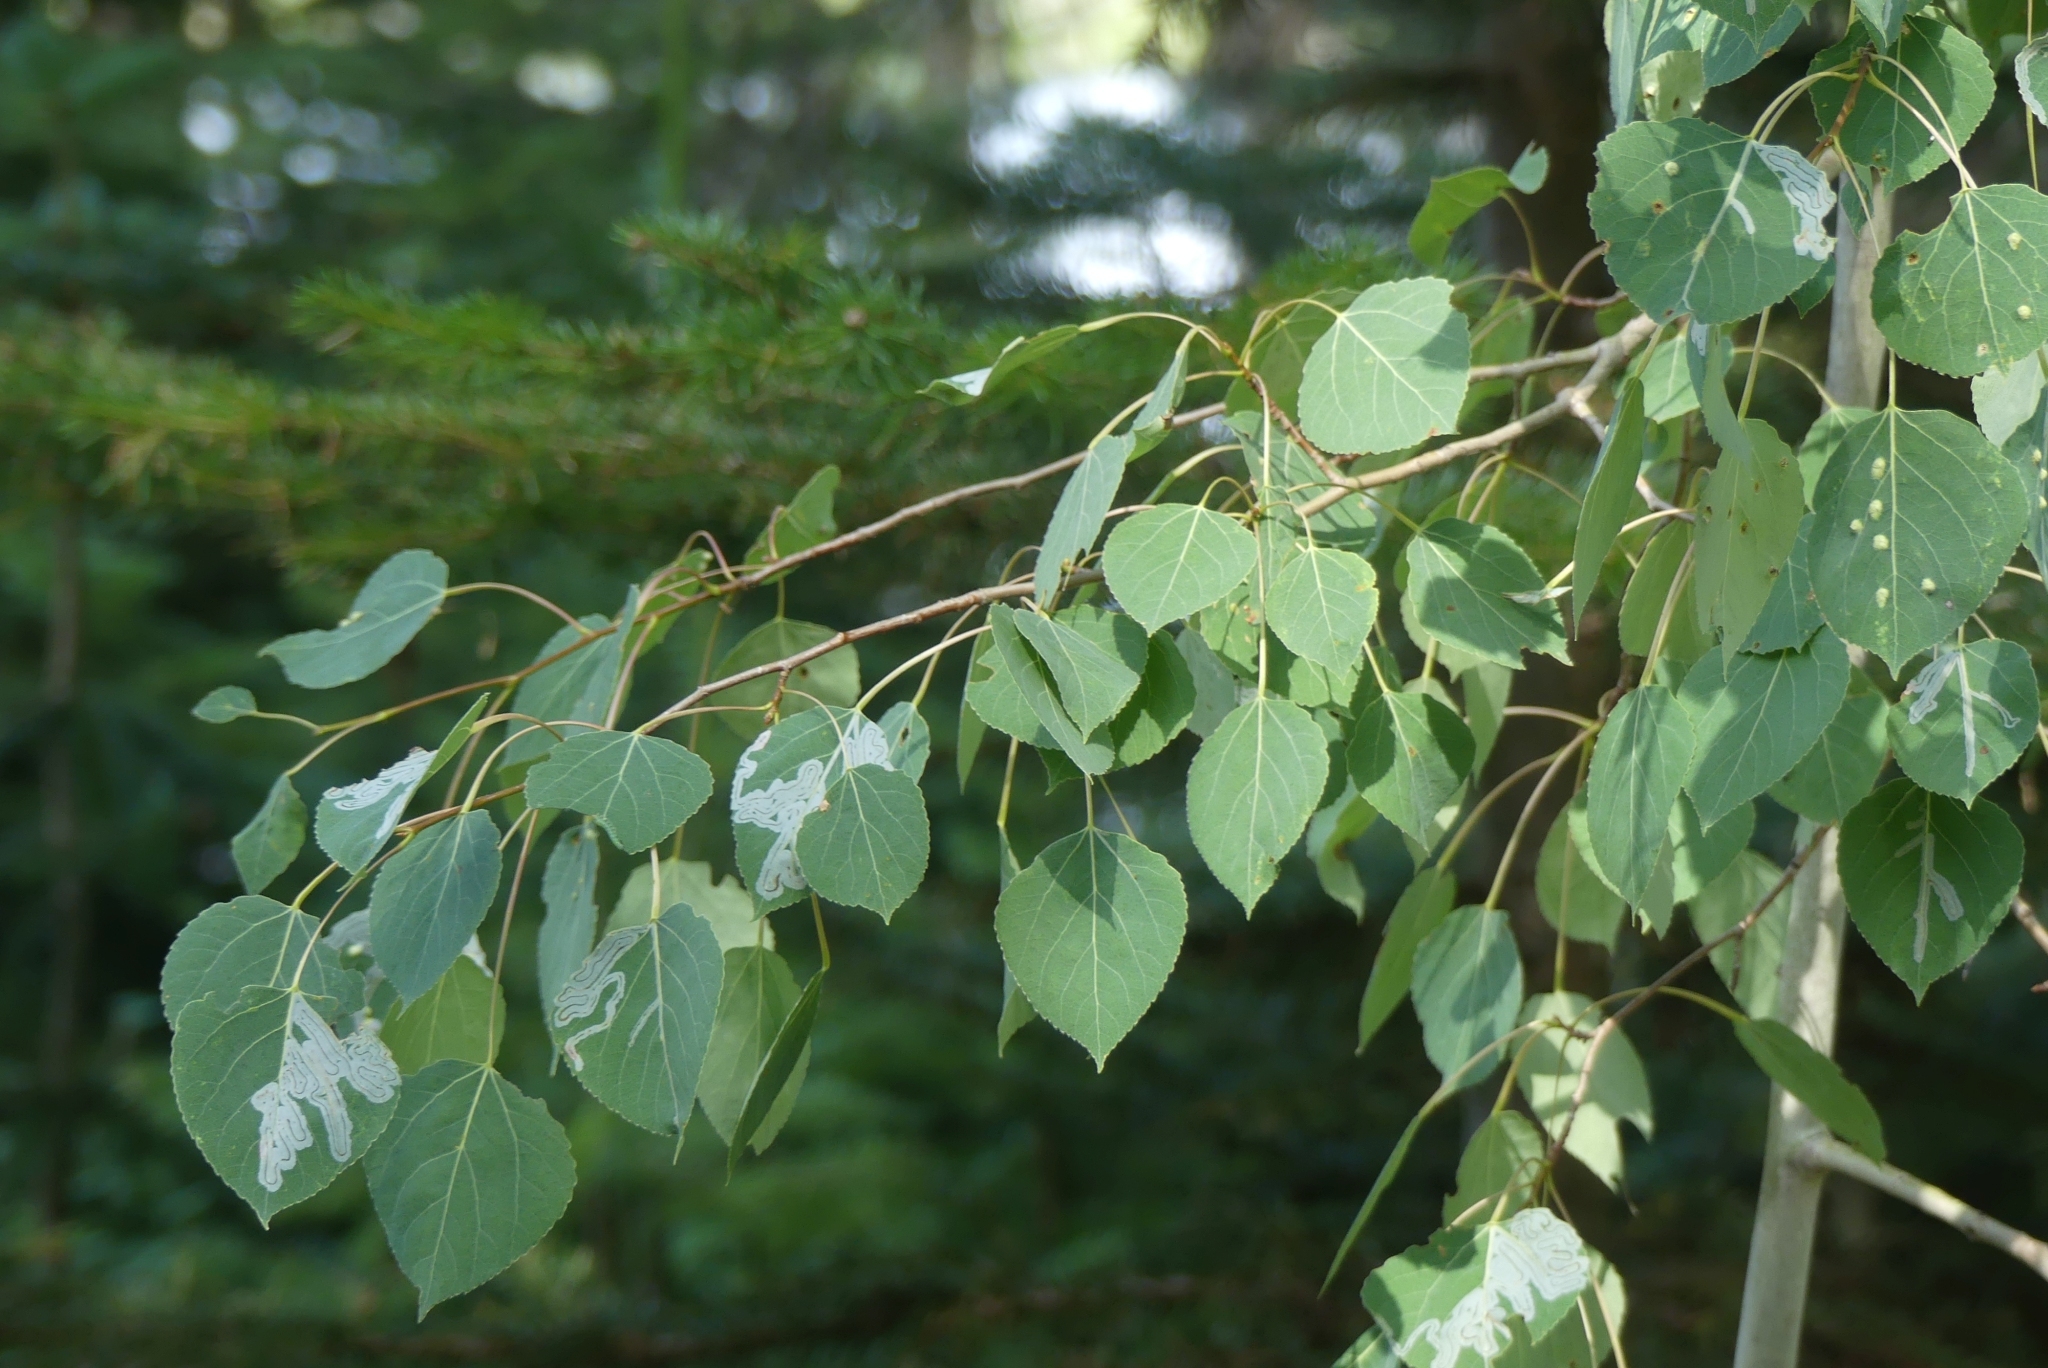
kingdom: Plantae
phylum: Tracheophyta
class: Magnoliopsida
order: Malpighiales
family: Salicaceae
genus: Populus
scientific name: Populus tremuloides
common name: Quaking aspen
